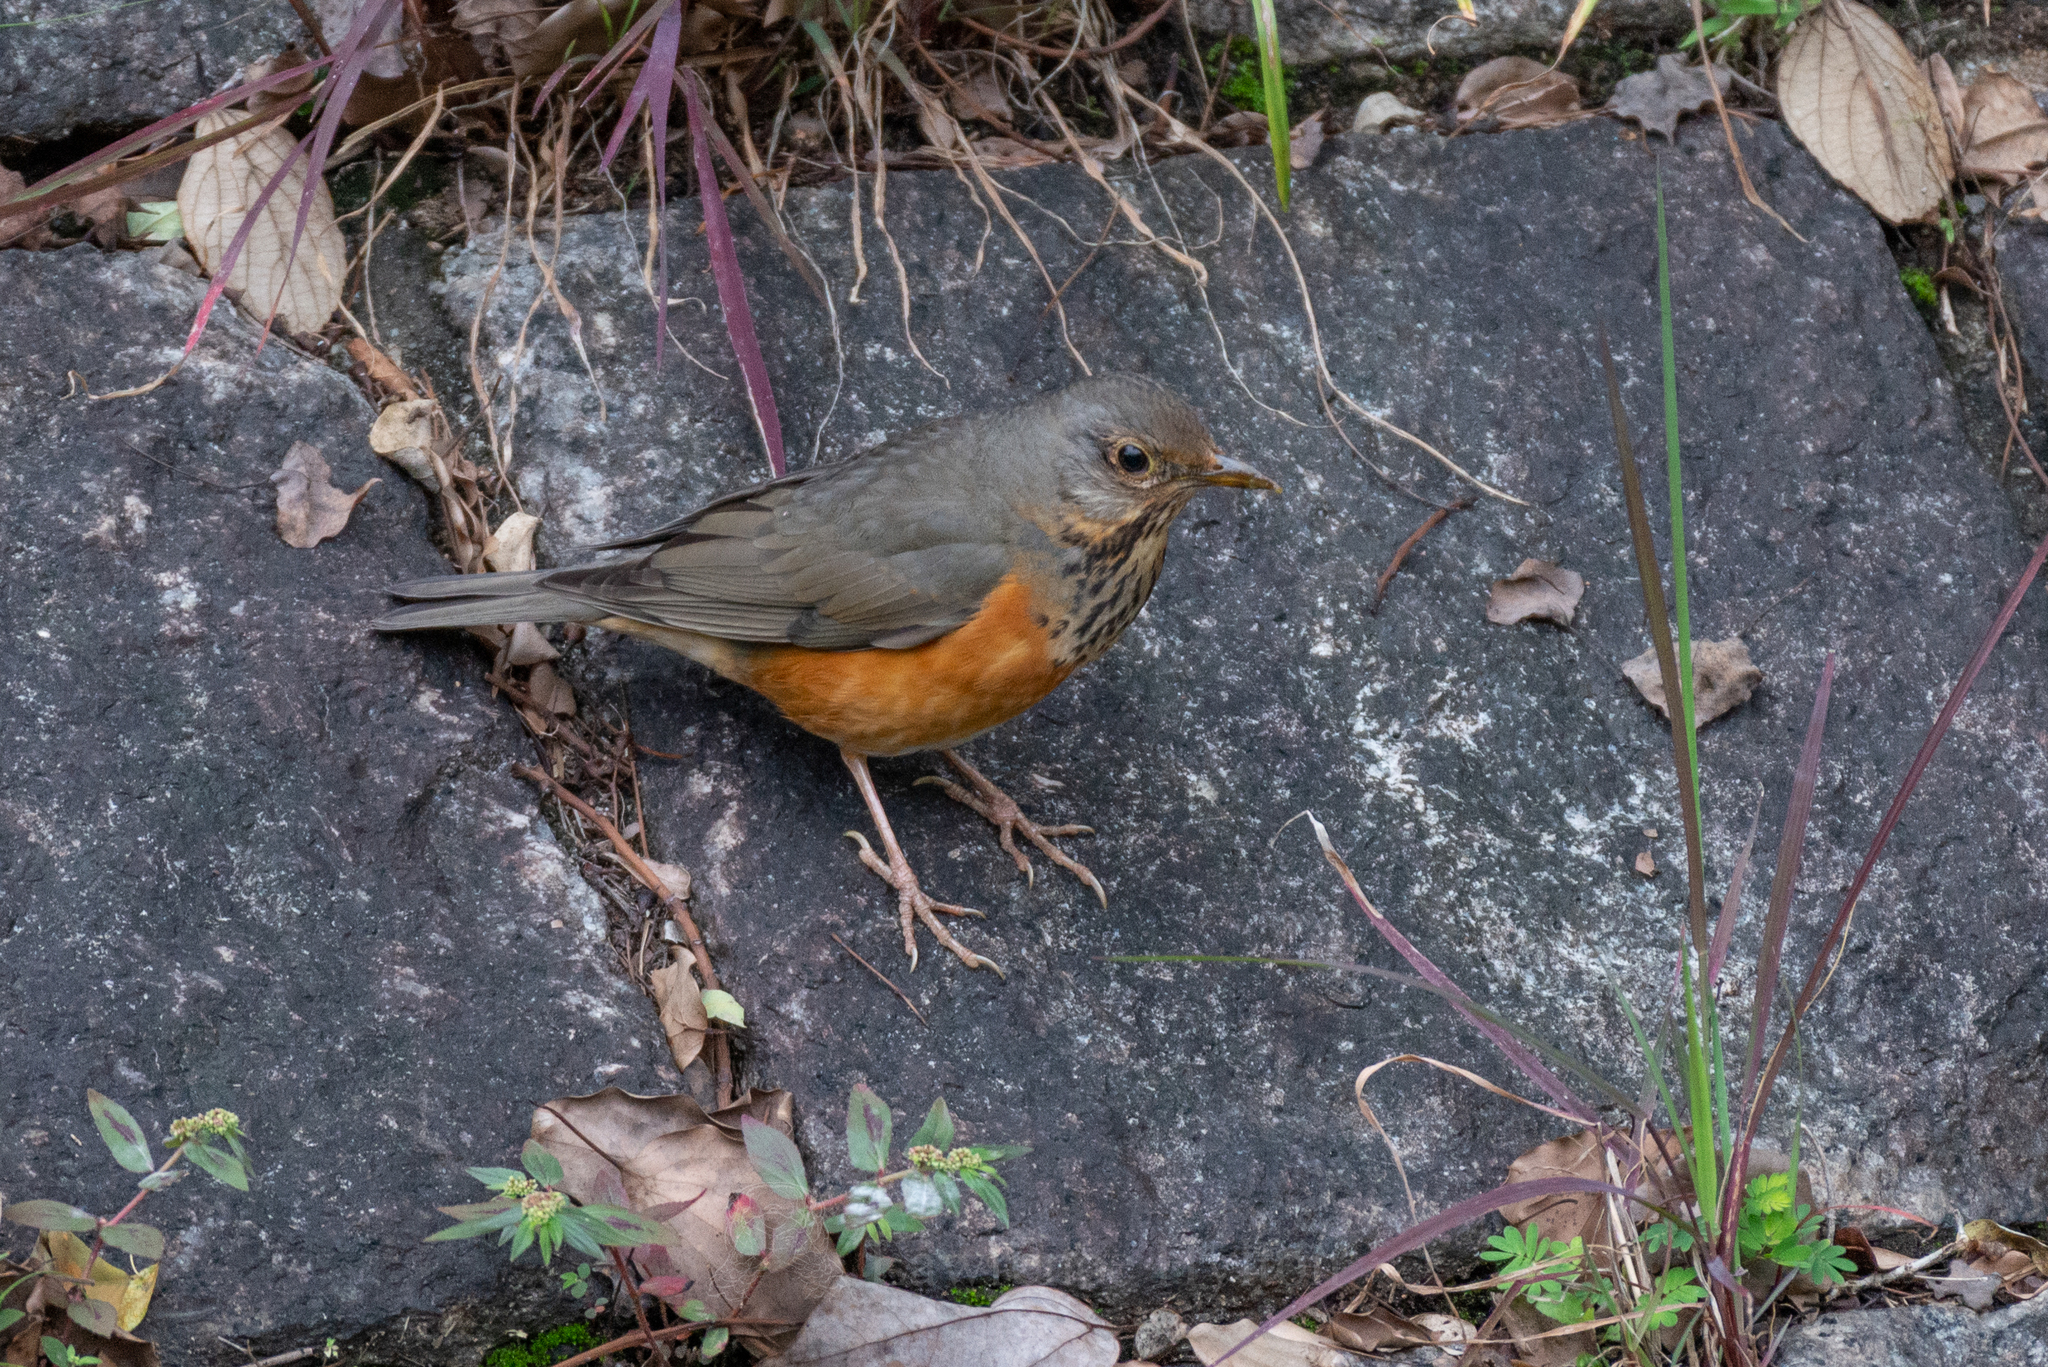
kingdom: Animalia
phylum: Chordata
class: Aves
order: Passeriformes
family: Turdidae
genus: Turdus
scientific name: Turdus hortulorum
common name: Grey-backed thrush
